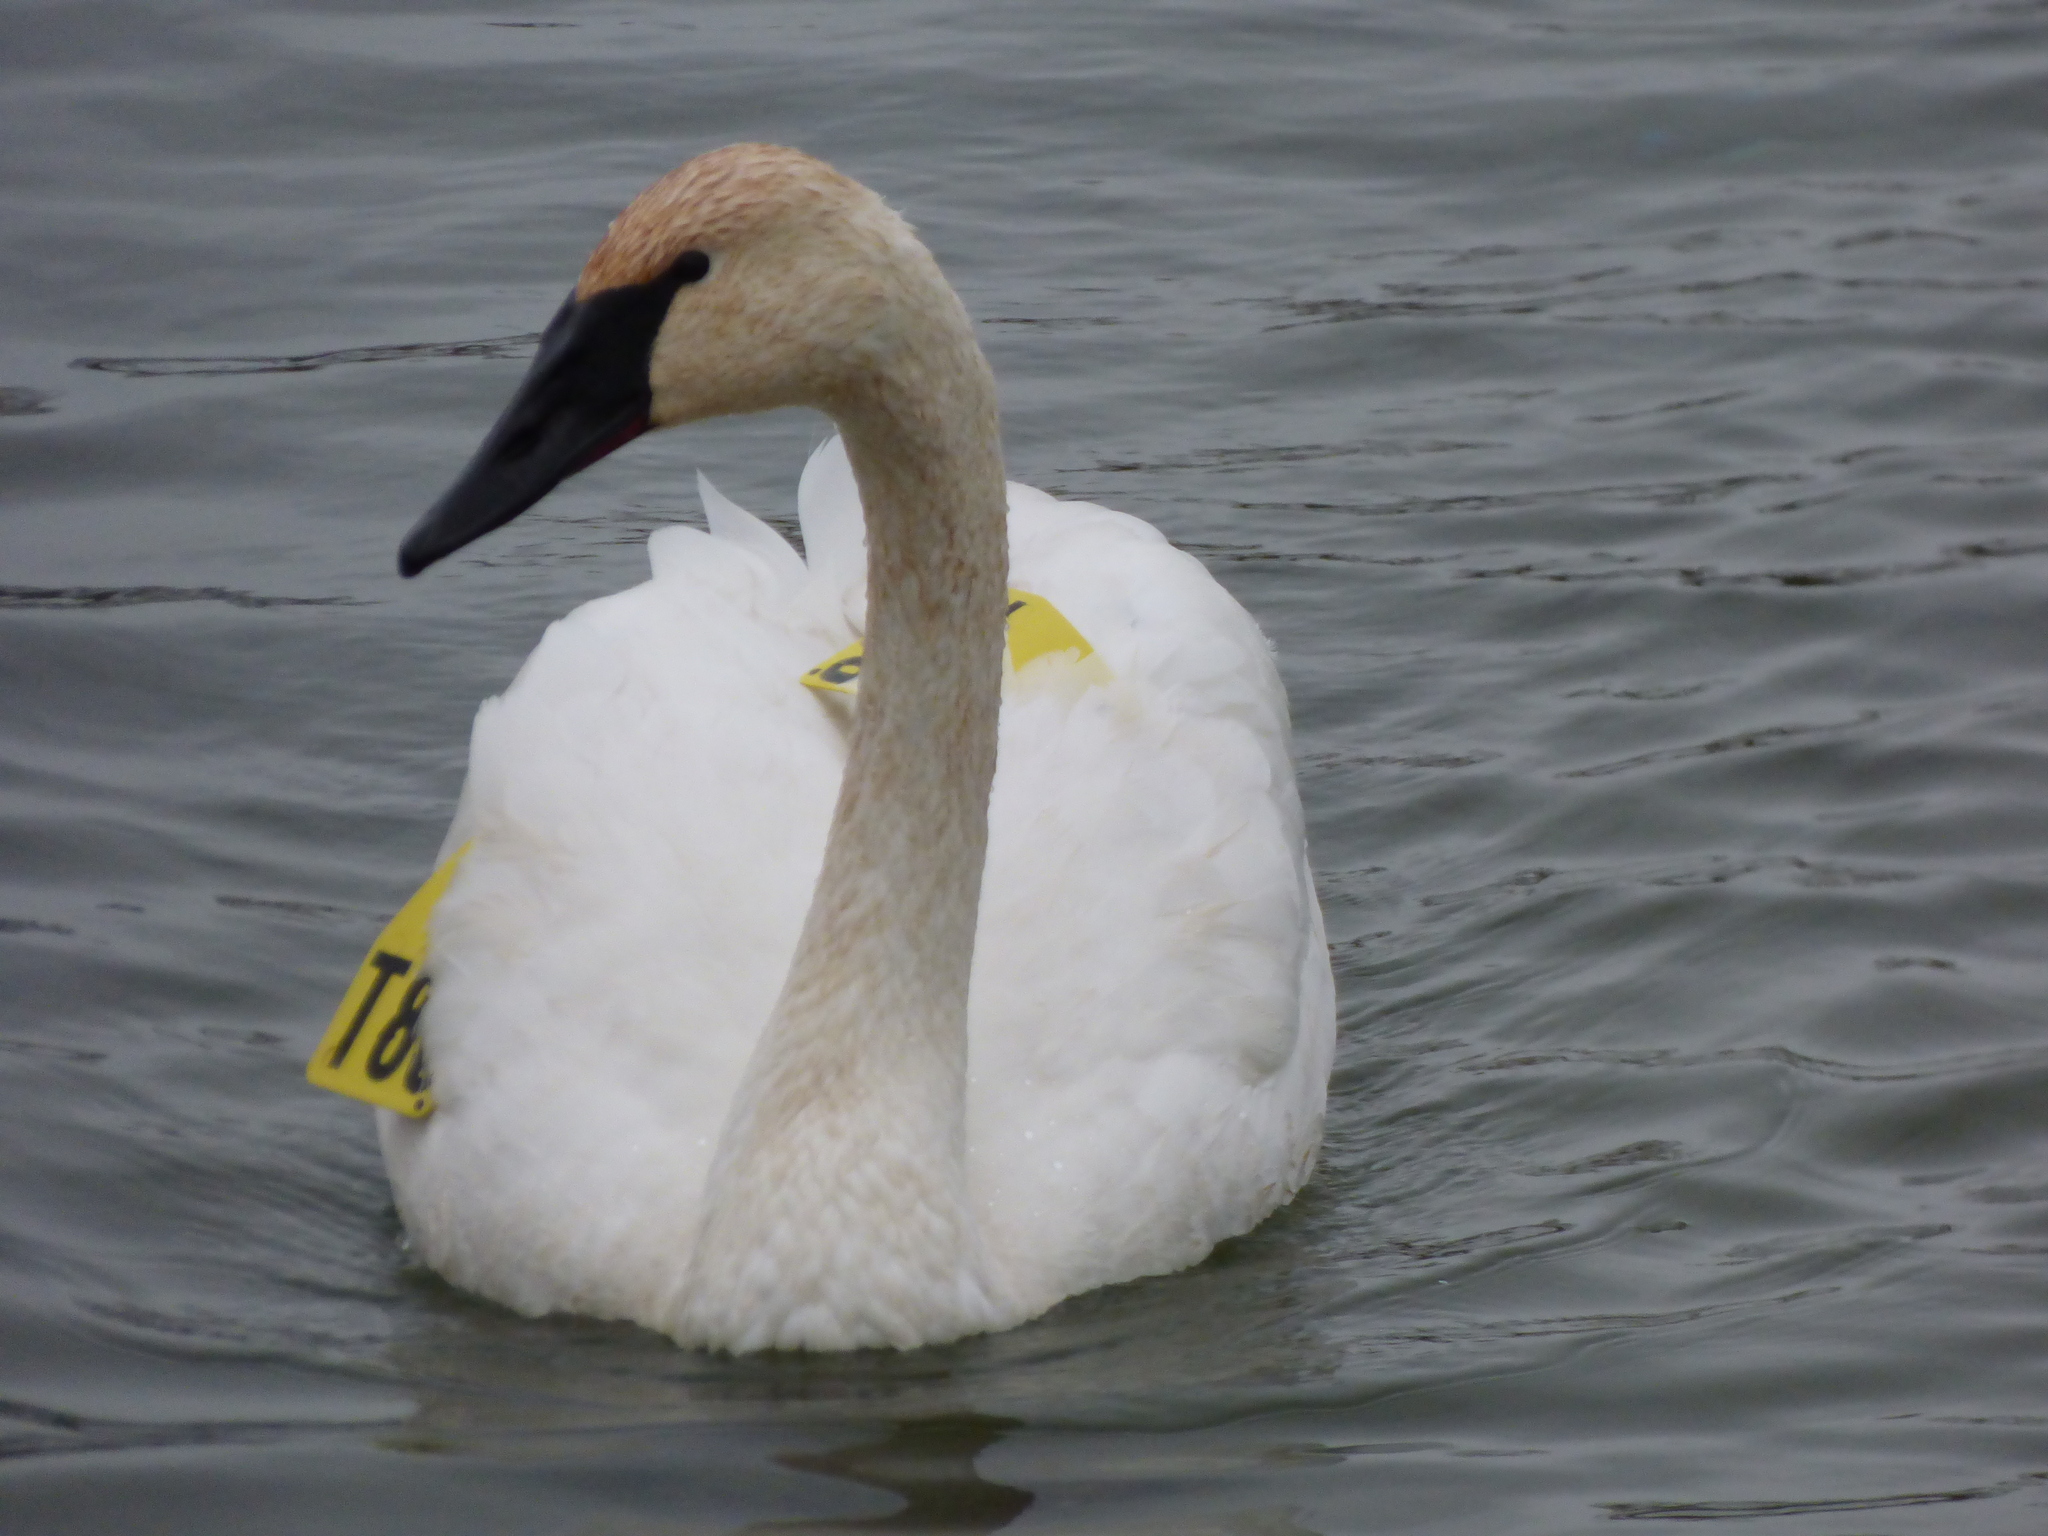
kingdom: Animalia
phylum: Chordata
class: Aves
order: Anseriformes
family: Anatidae
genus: Cygnus
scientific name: Cygnus buccinator
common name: Trumpeter swan
